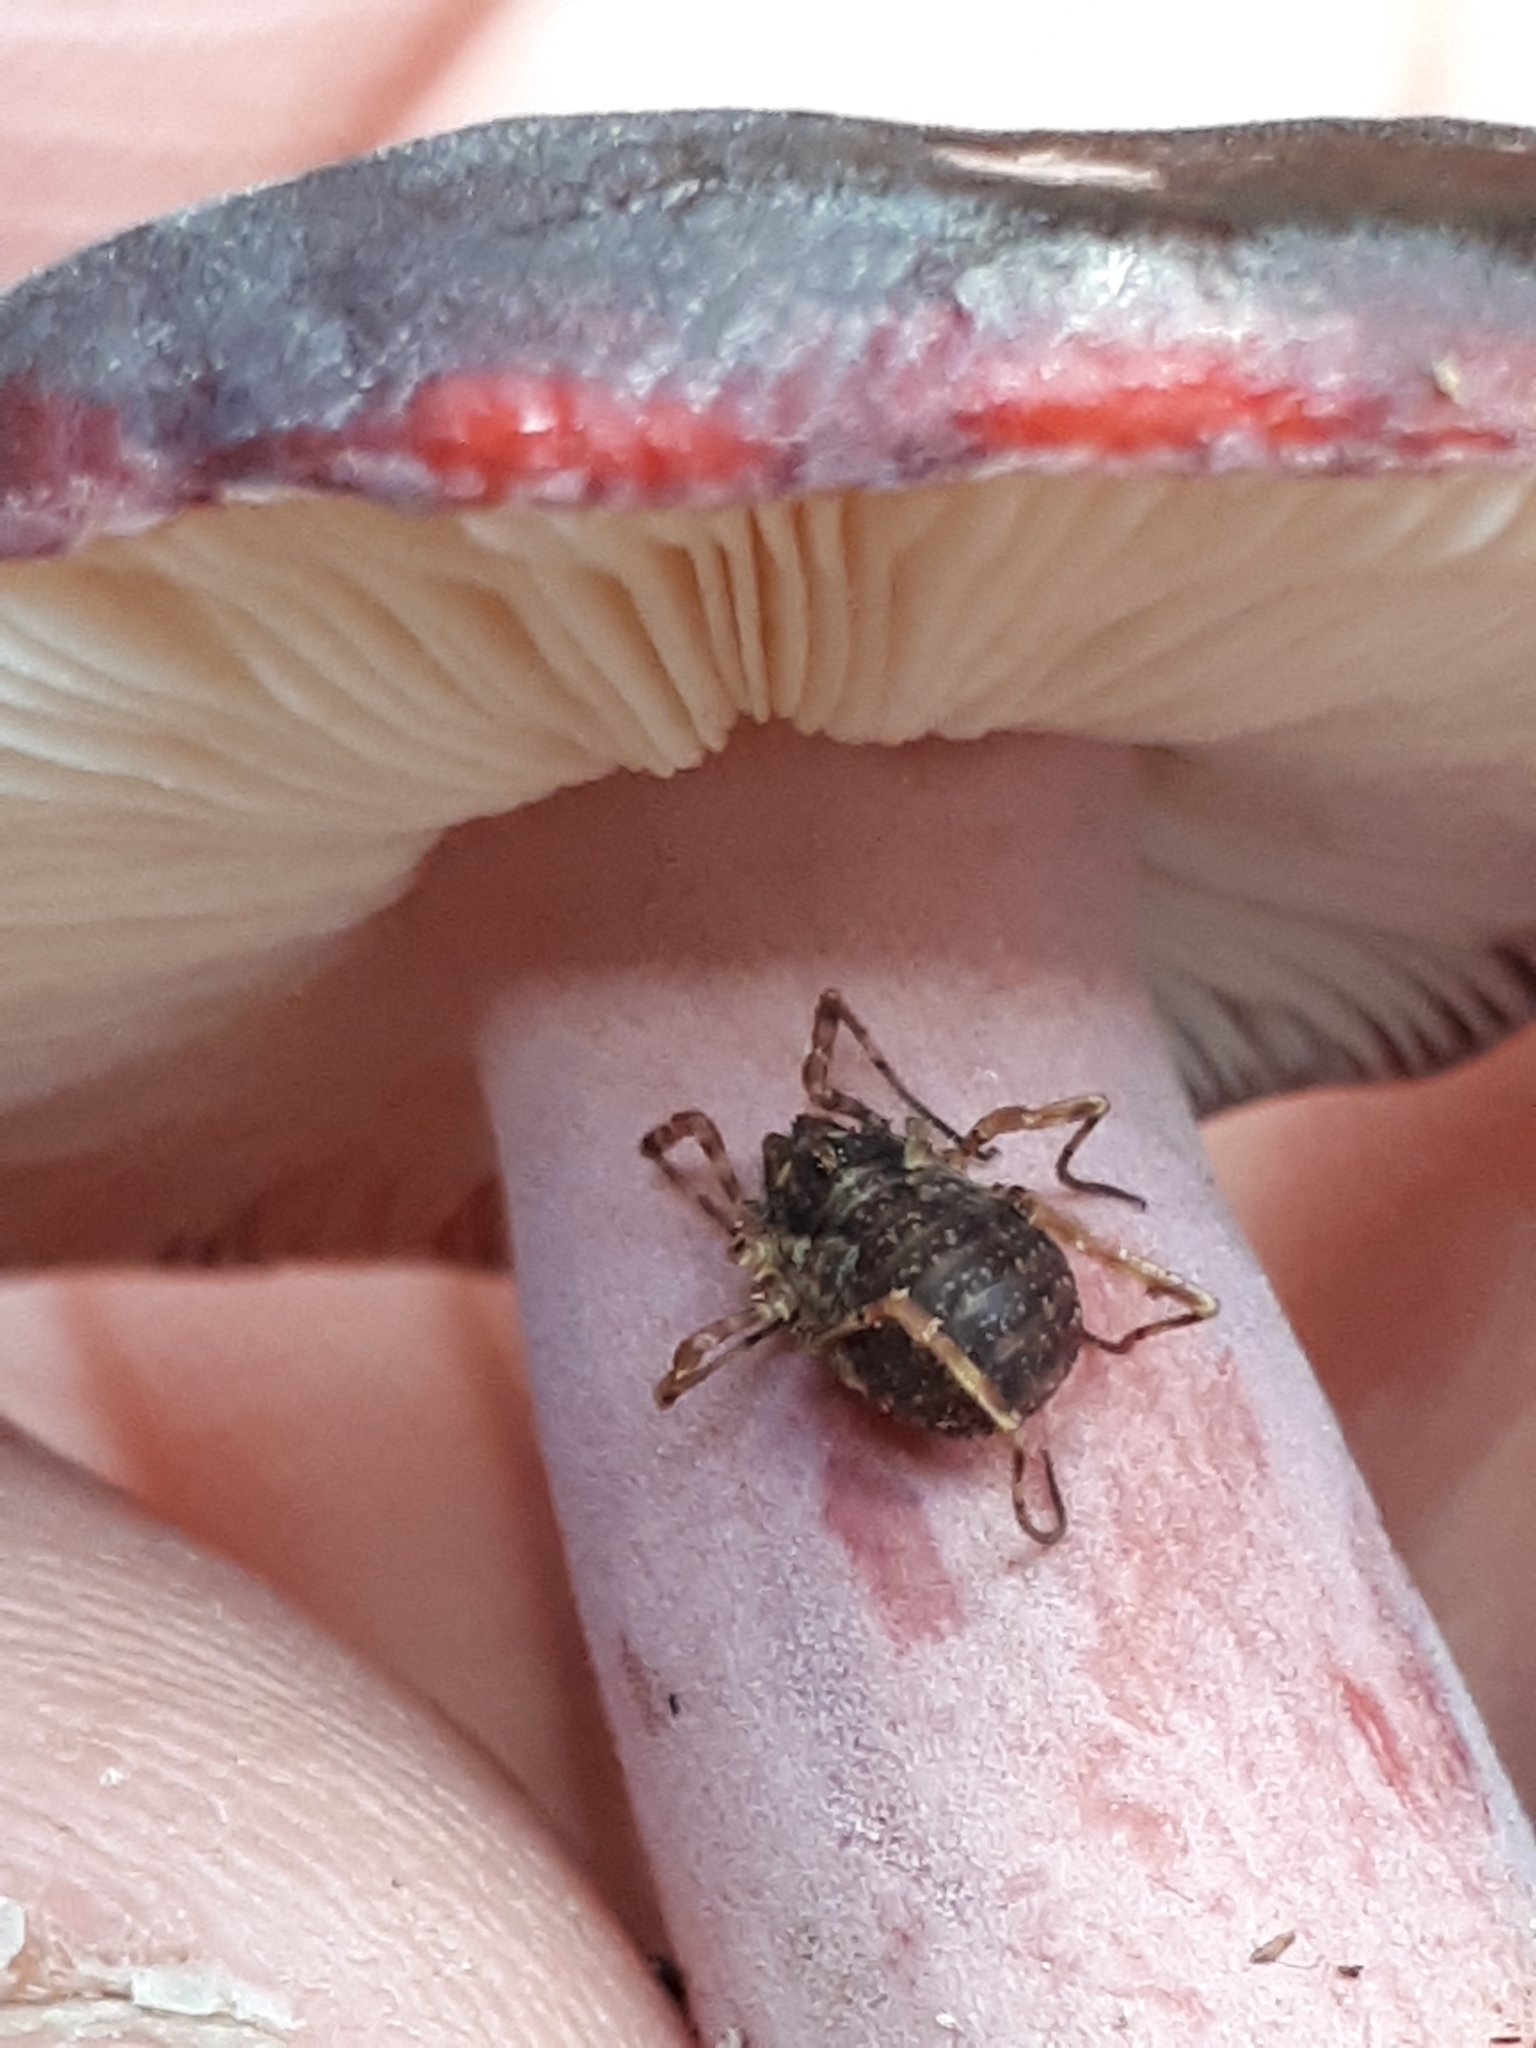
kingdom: Animalia
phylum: Arthropoda
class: Arachnida
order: Opiliones
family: Phalangiidae
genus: Oligolophus
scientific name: Oligolophus hansenii
